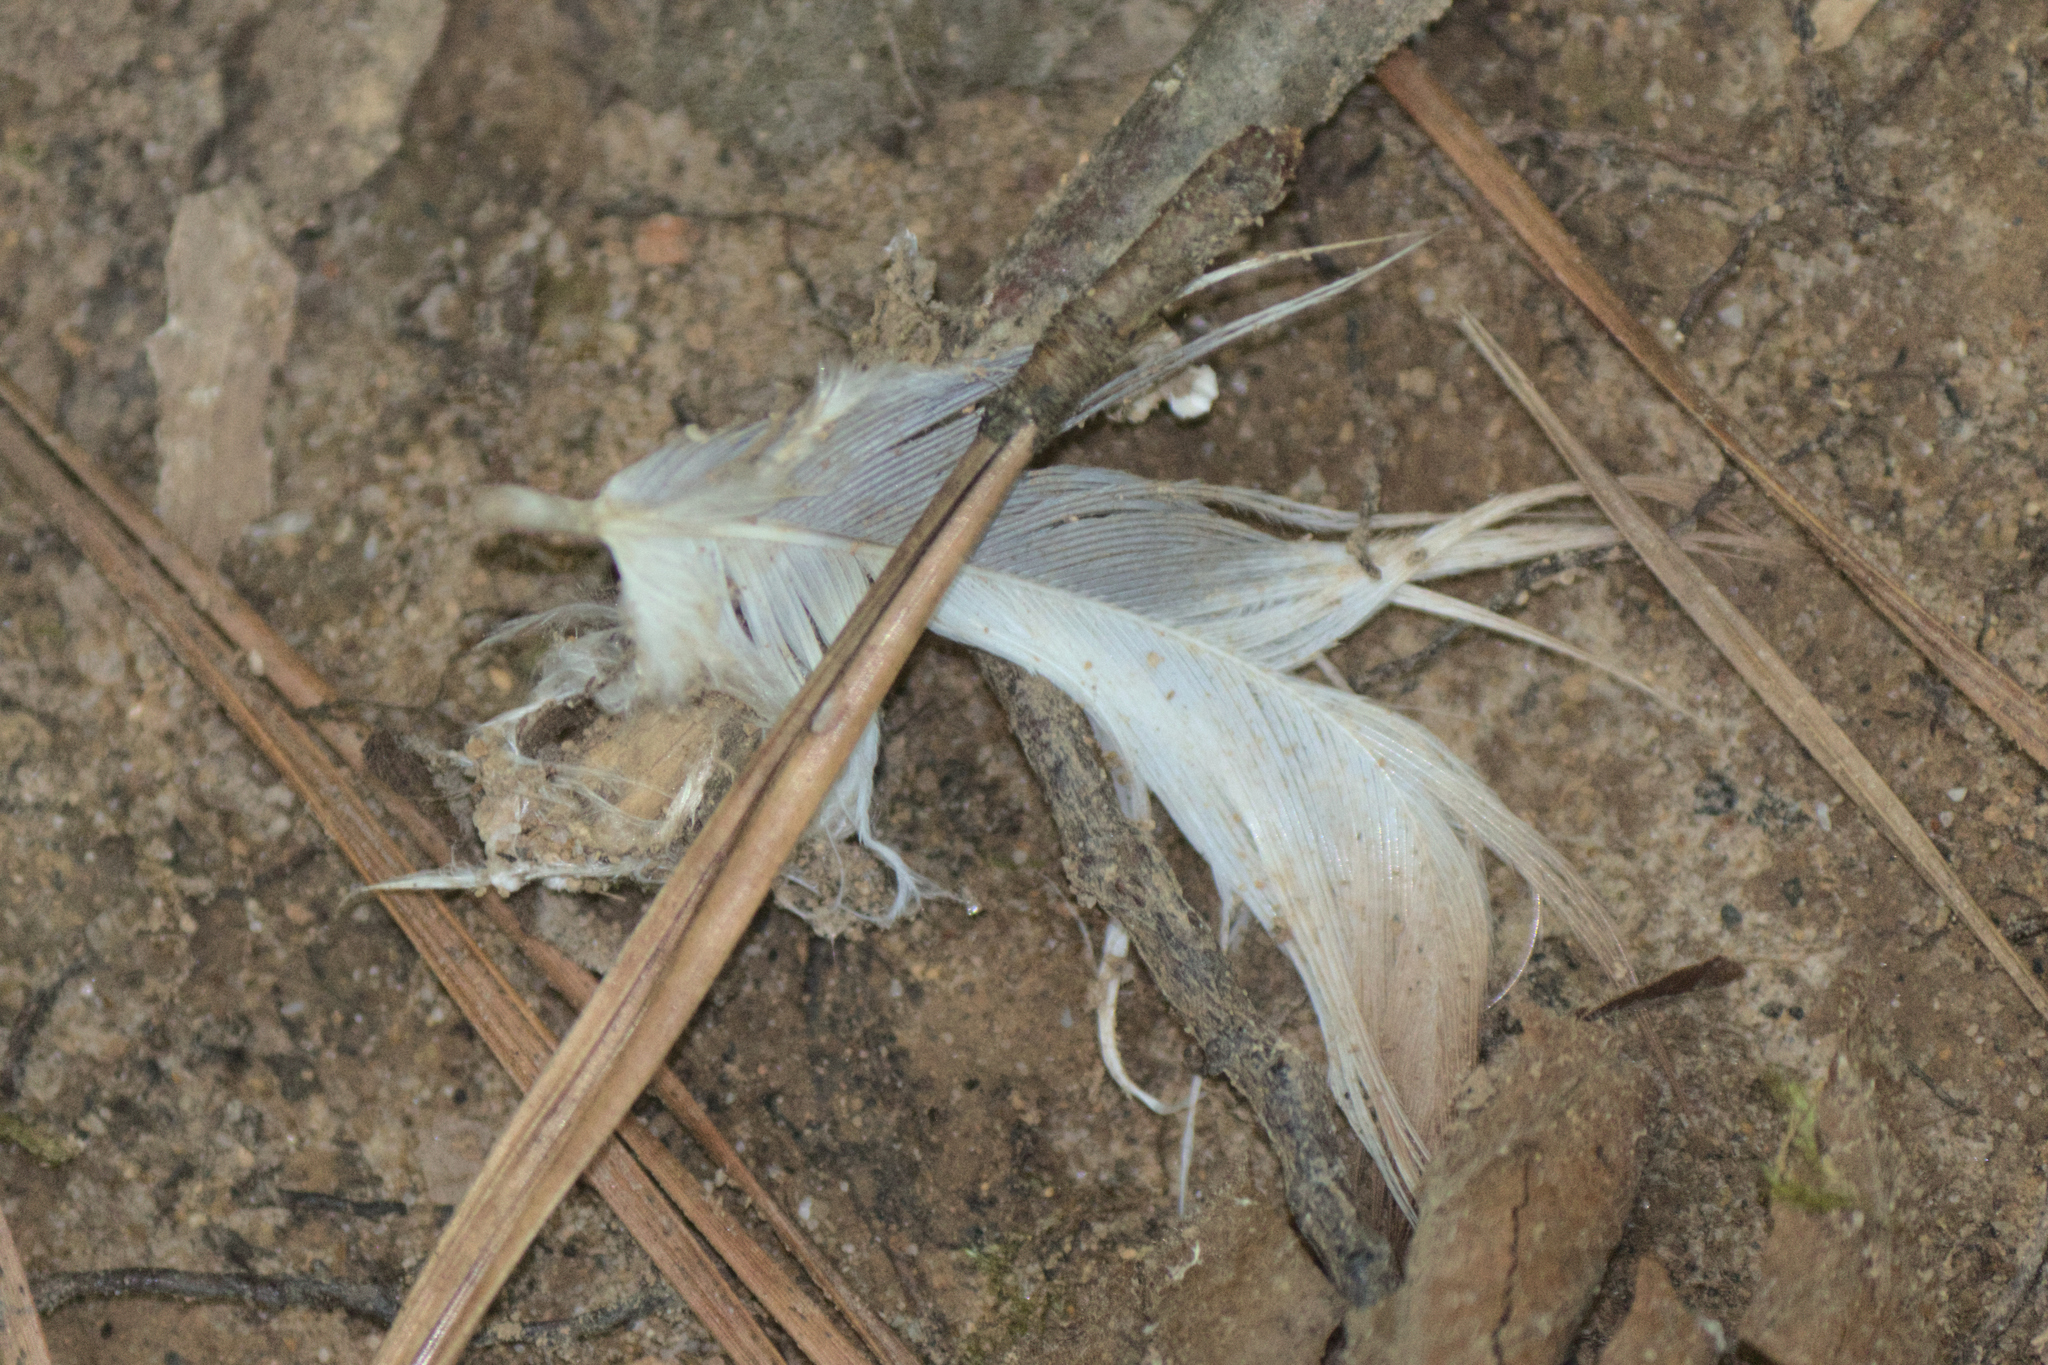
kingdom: Animalia
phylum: Chordata
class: Aves
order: Pelecaniformes
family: Ardeidae
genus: Ardea
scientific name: Ardea herodias
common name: Great blue heron
